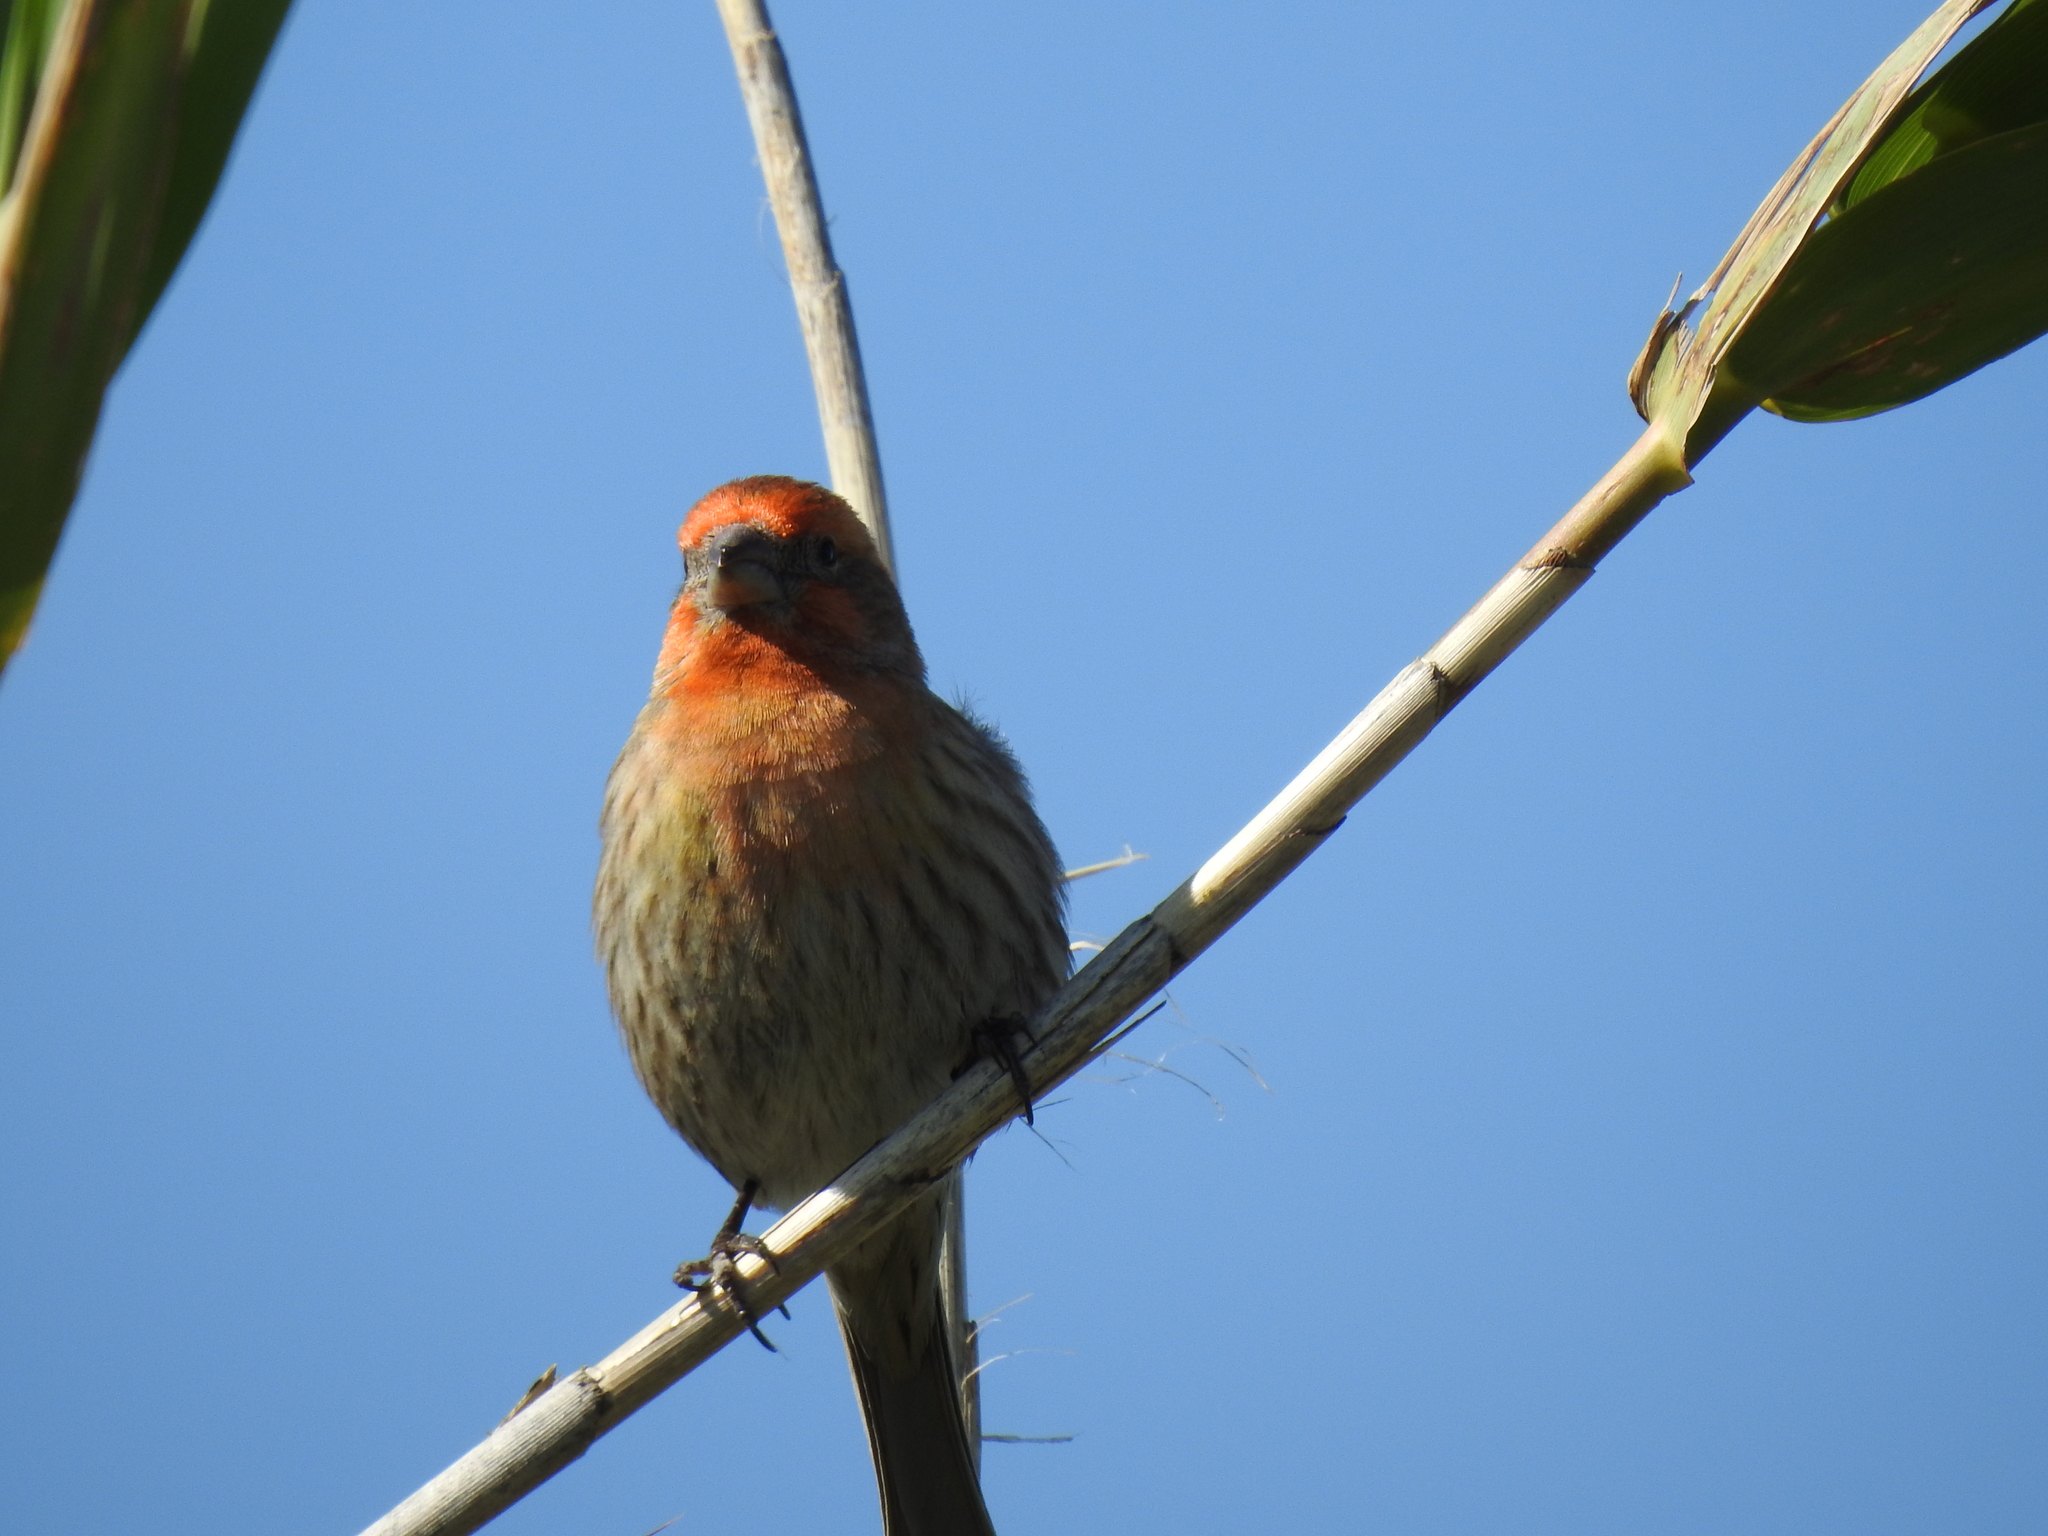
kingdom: Animalia
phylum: Chordata
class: Aves
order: Passeriformes
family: Fringillidae
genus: Haemorhous
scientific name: Haemorhous mexicanus
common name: House finch
